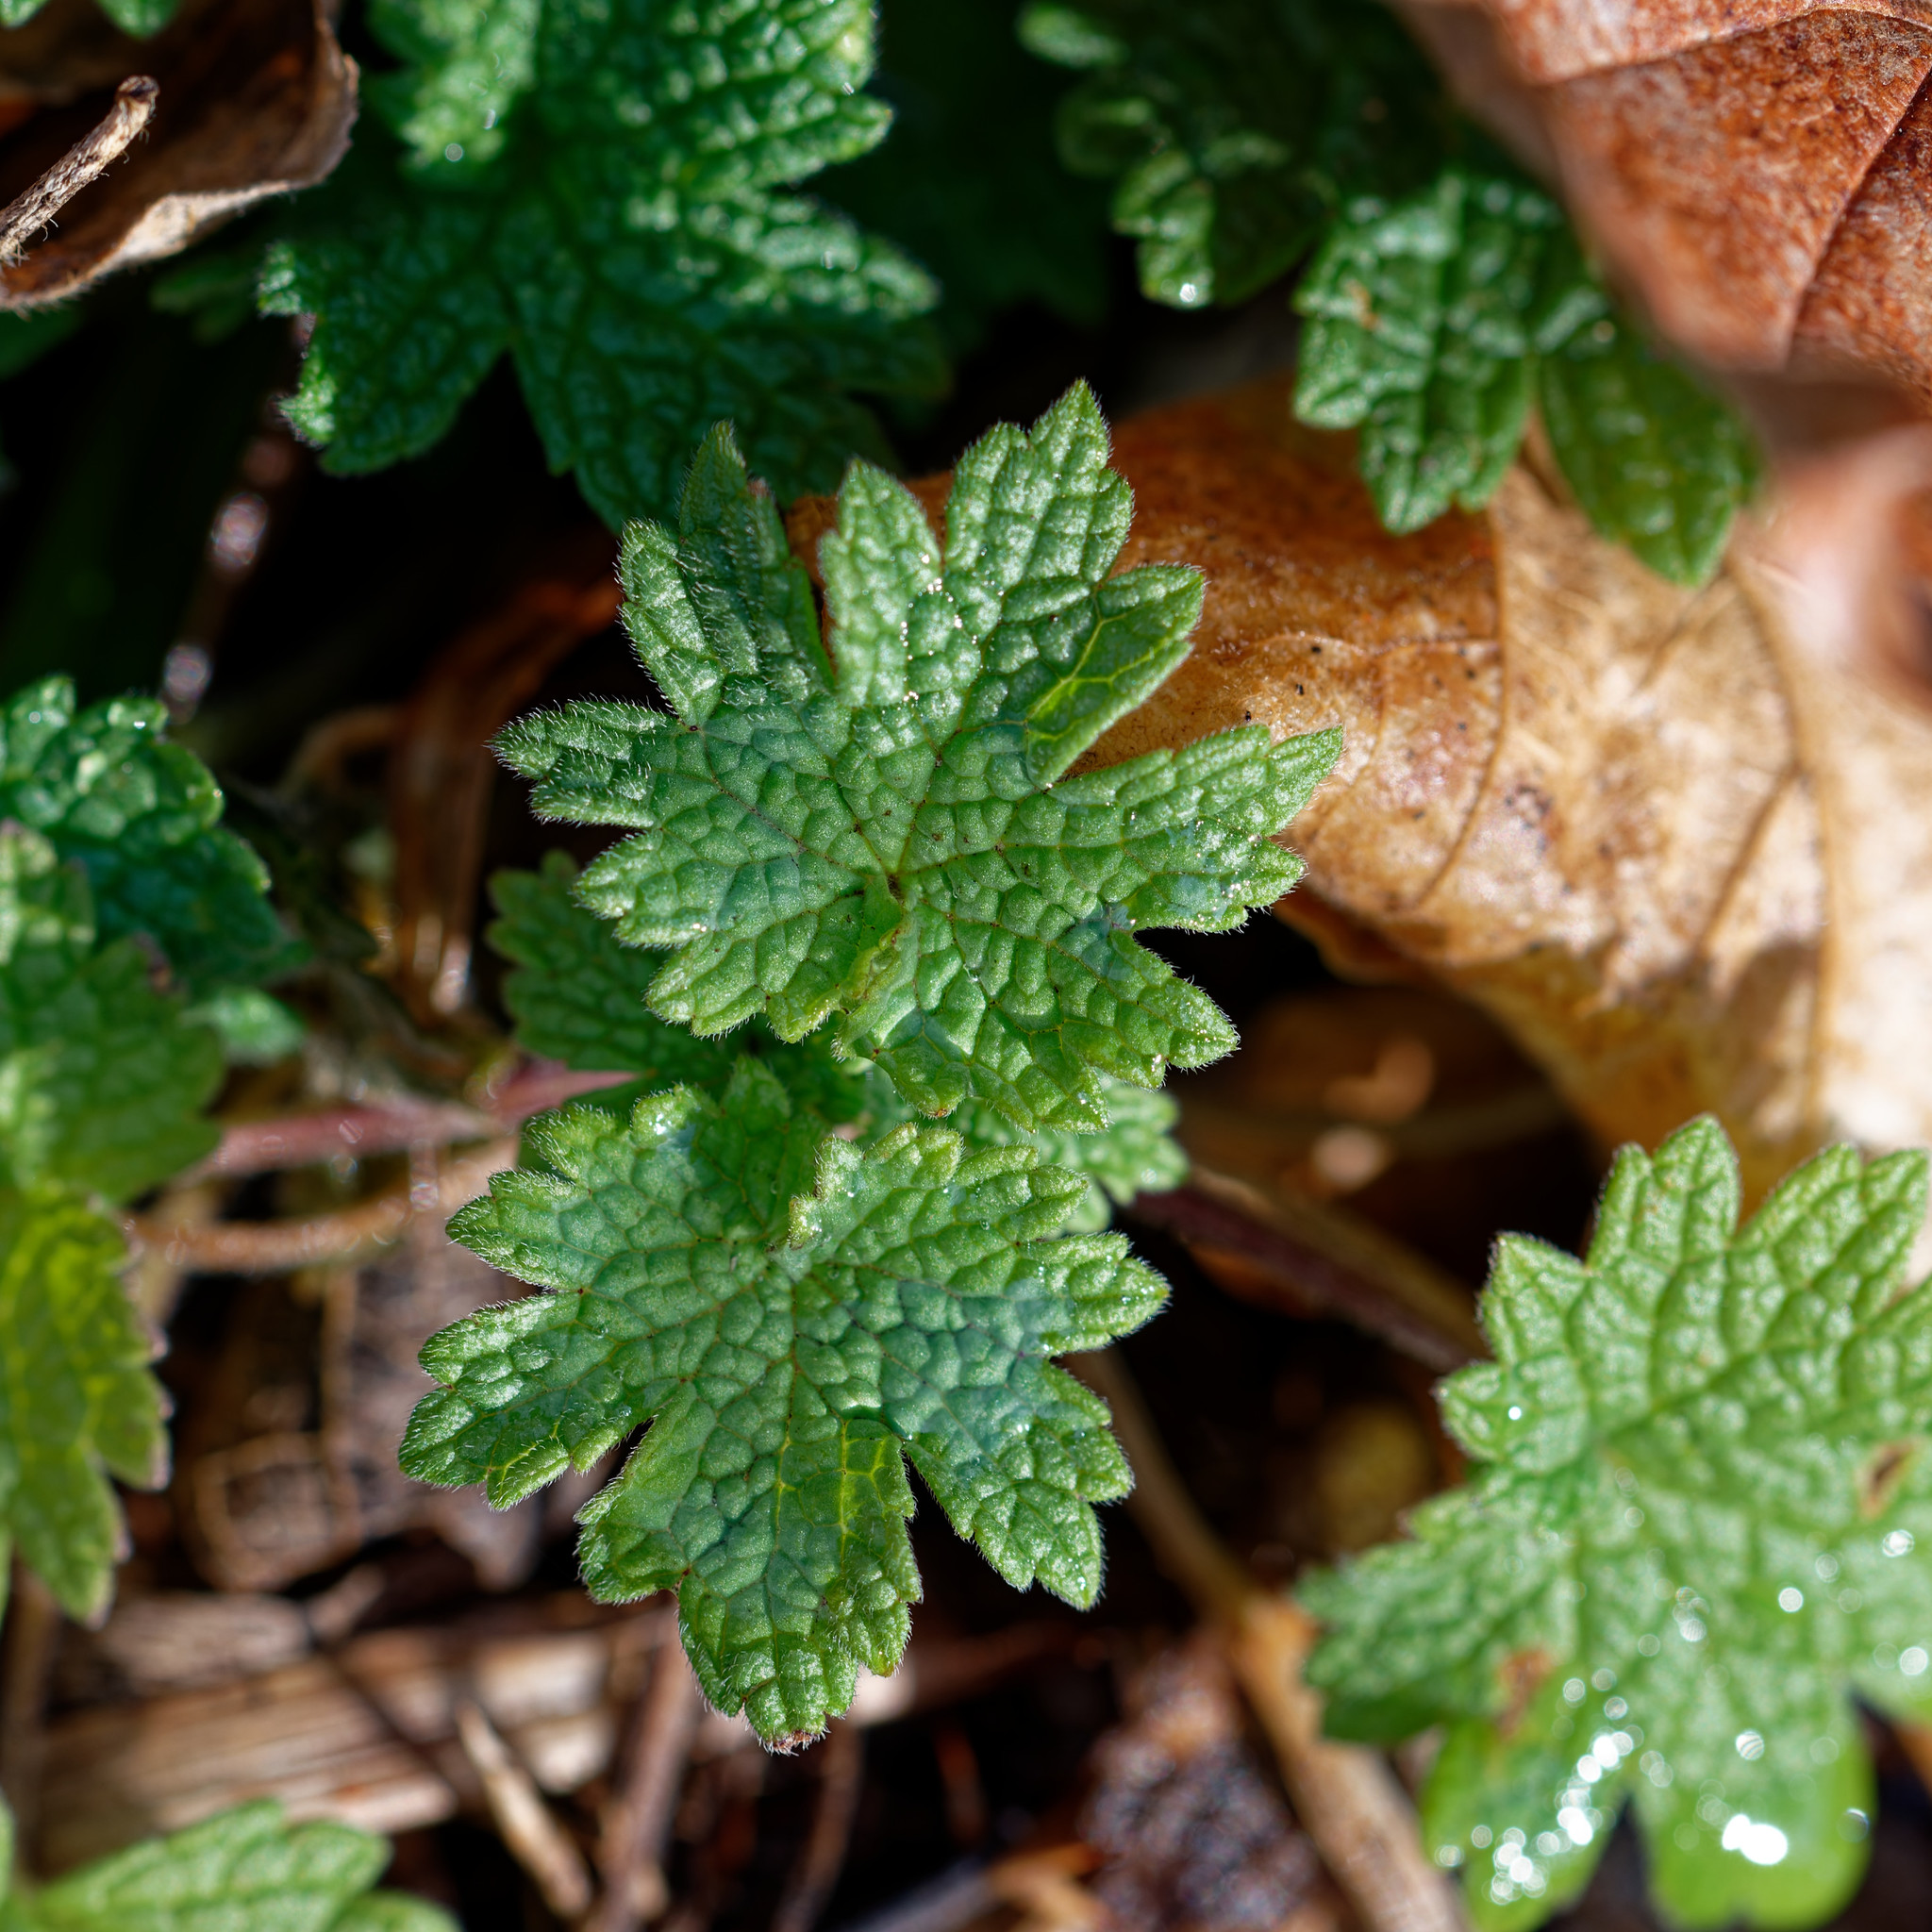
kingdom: Plantae
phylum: Tracheophyta
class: Magnoliopsida
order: Lamiales
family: Lamiaceae
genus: Leonurus
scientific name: Leonurus cardiaca
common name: Motherwort
